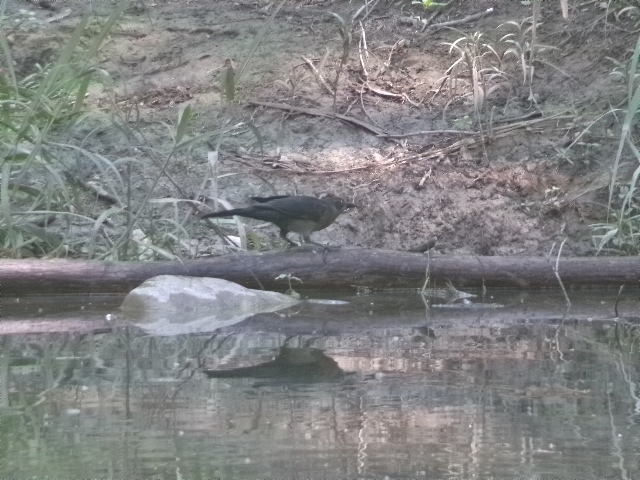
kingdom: Animalia
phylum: Chordata
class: Aves
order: Passeriformes
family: Icteridae
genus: Quiscalus
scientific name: Quiscalus mexicanus
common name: Great-tailed grackle
